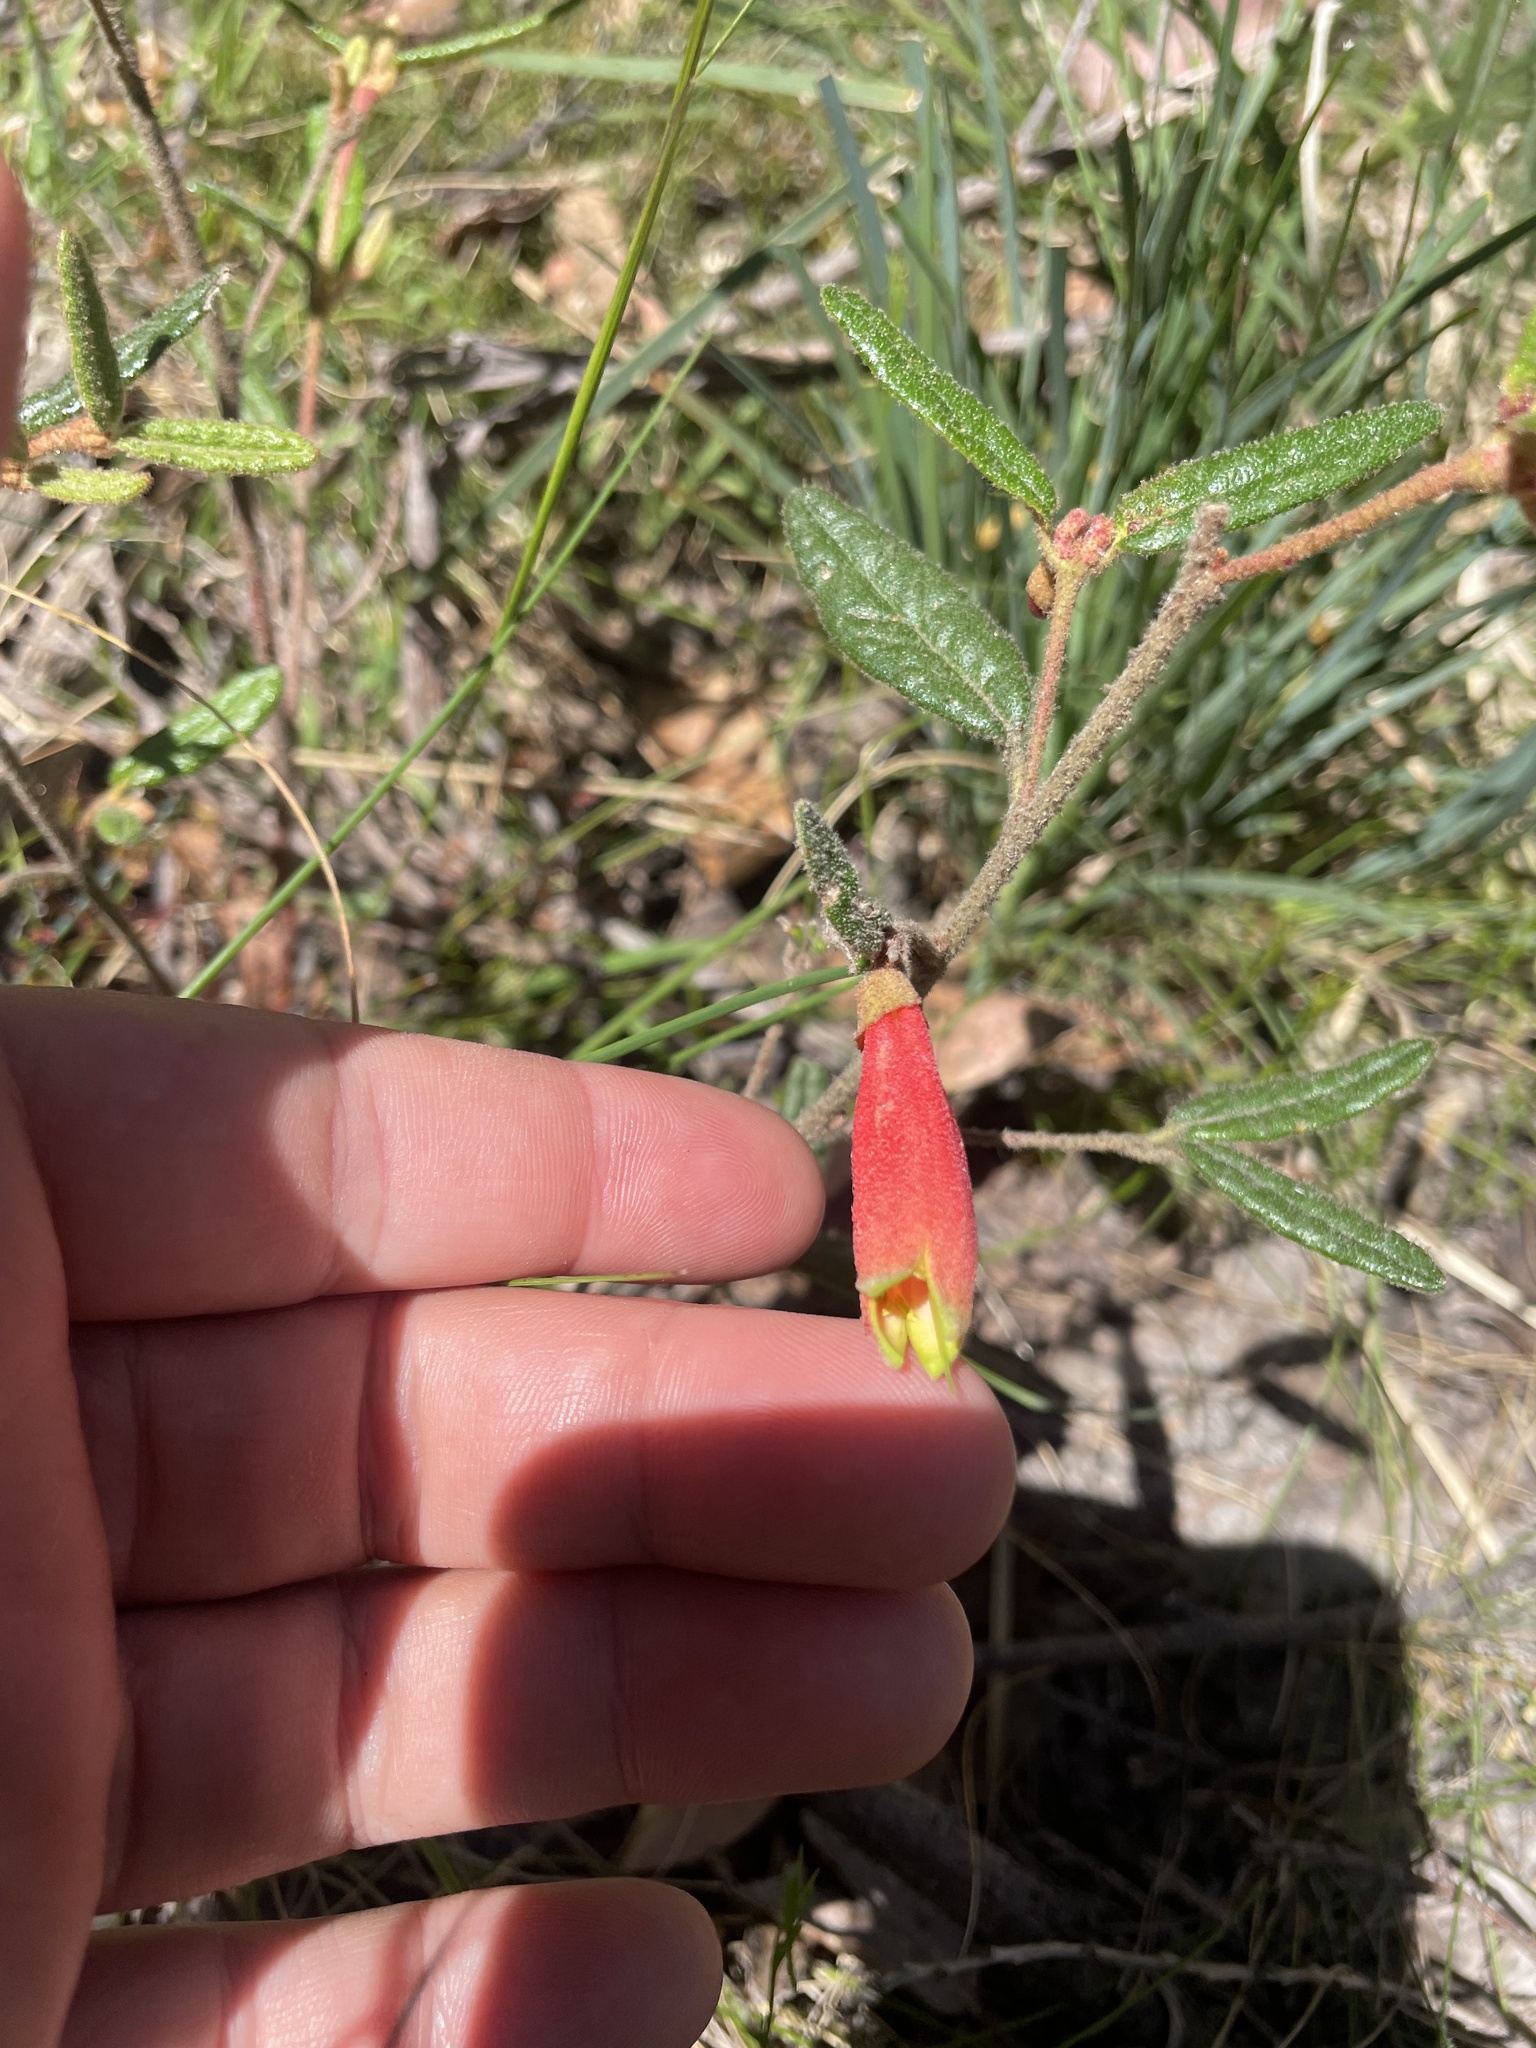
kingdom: Plantae
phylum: Tracheophyta
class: Magnoliopsida
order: Sapindales
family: Rutaceae
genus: Correa
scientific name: Correa reflexa
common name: Common correa
